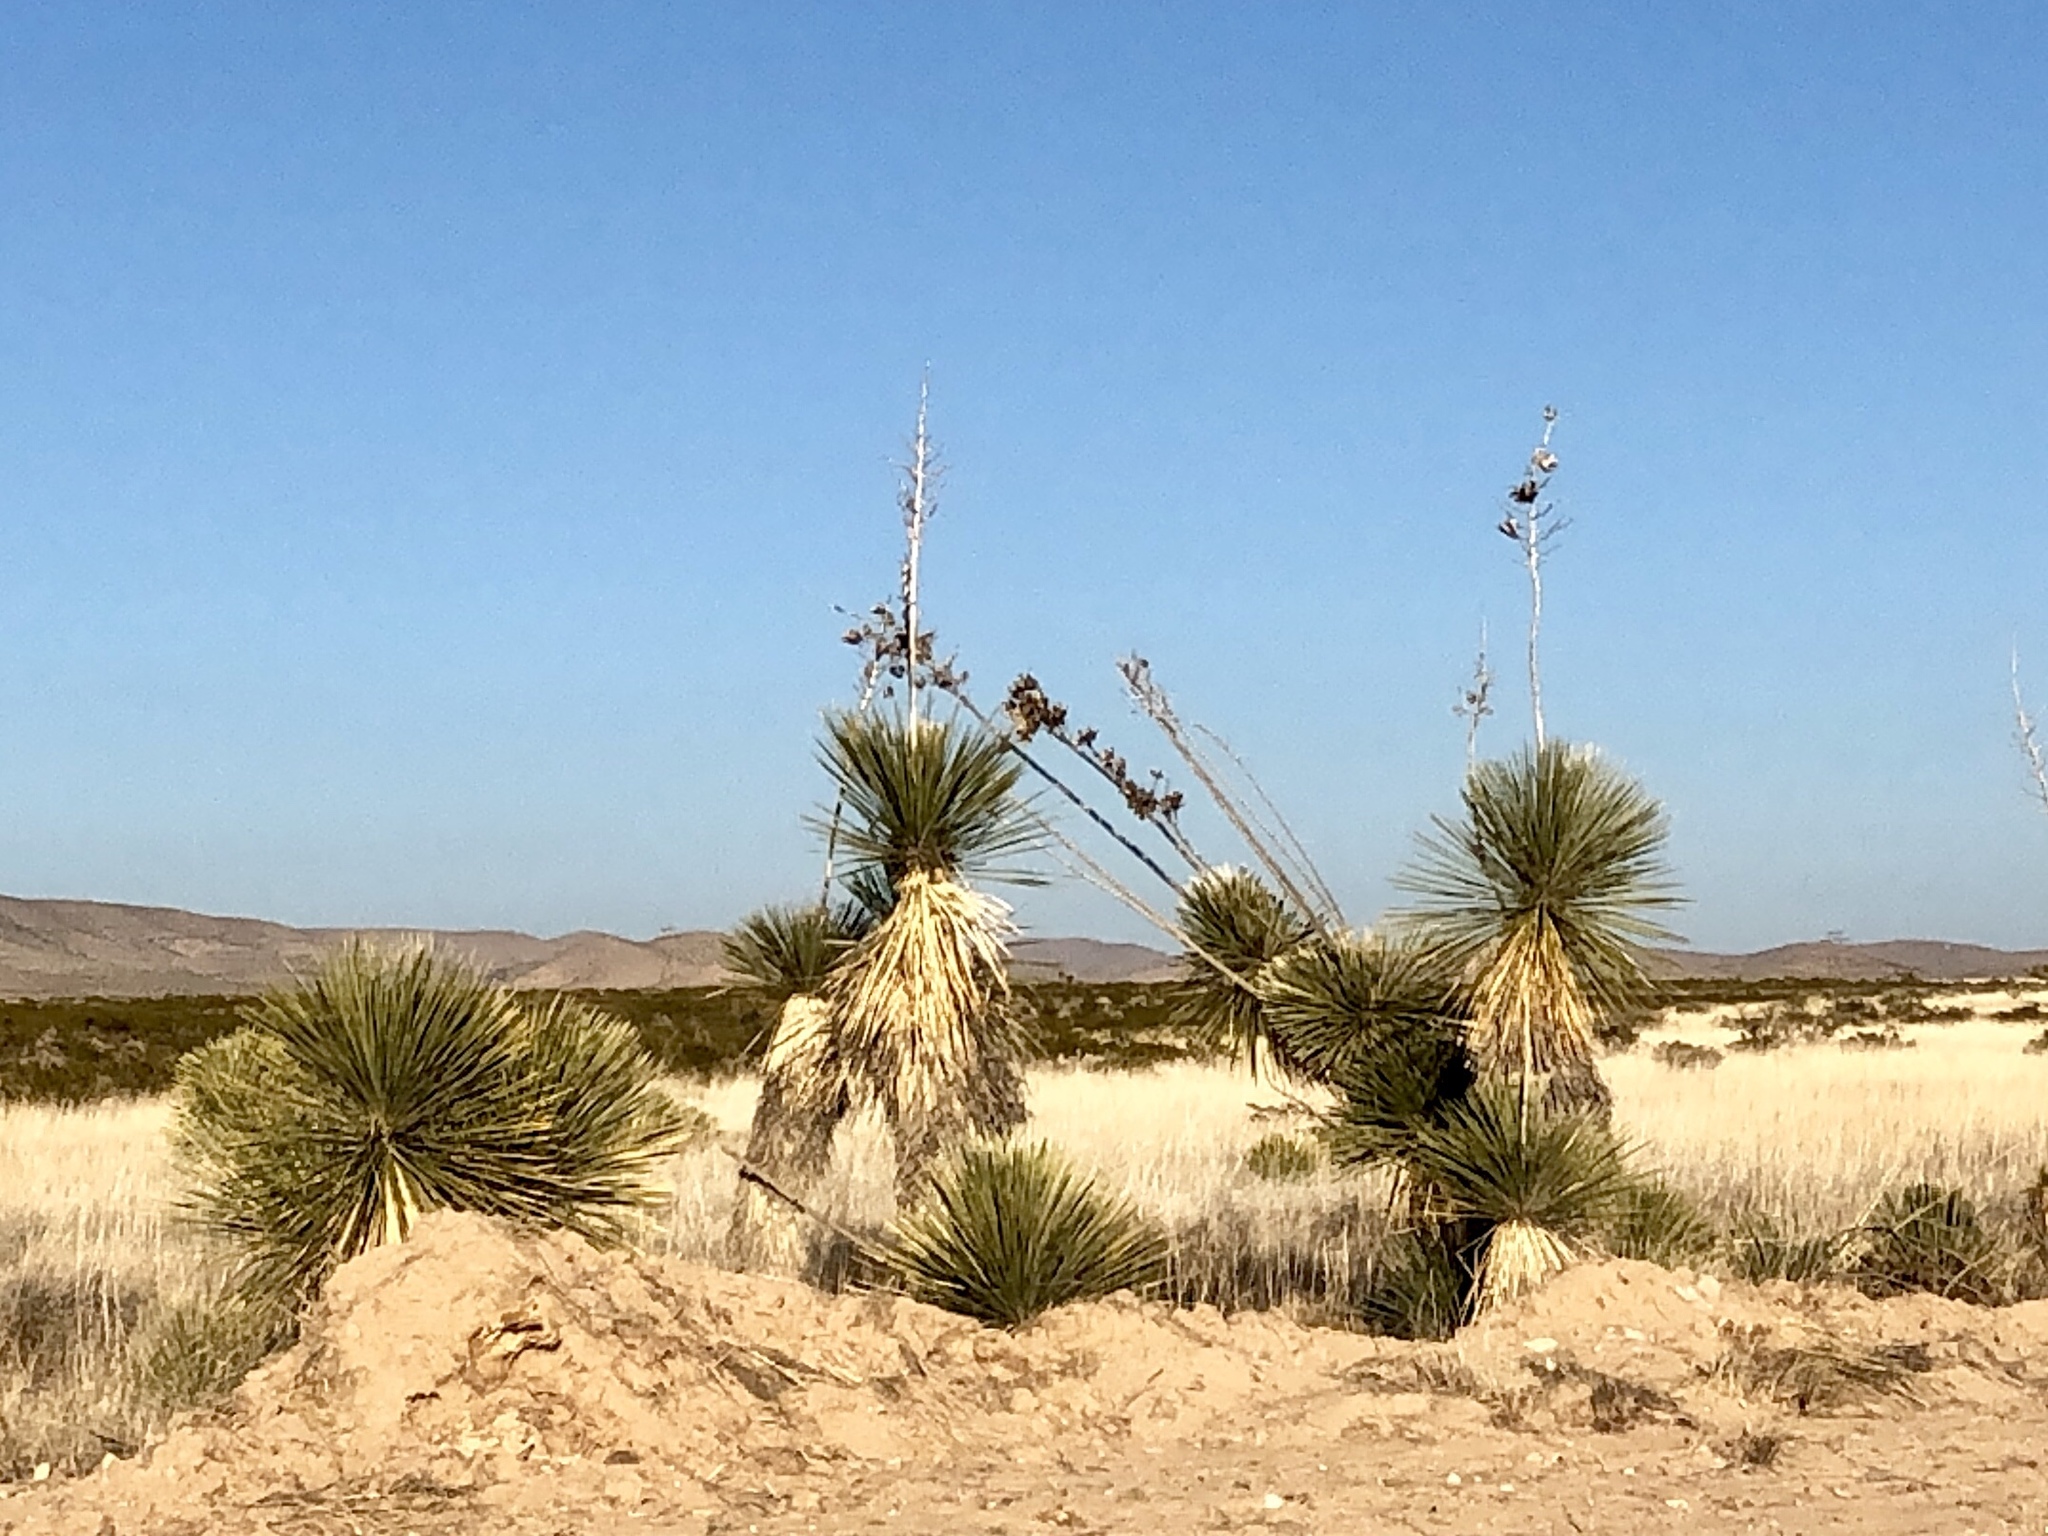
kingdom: Plantae
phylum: Tracheophyta
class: Liliopsida
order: Asparagales
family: Asparagaceae
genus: Yucca
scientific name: Yucca elata
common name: Palmella
